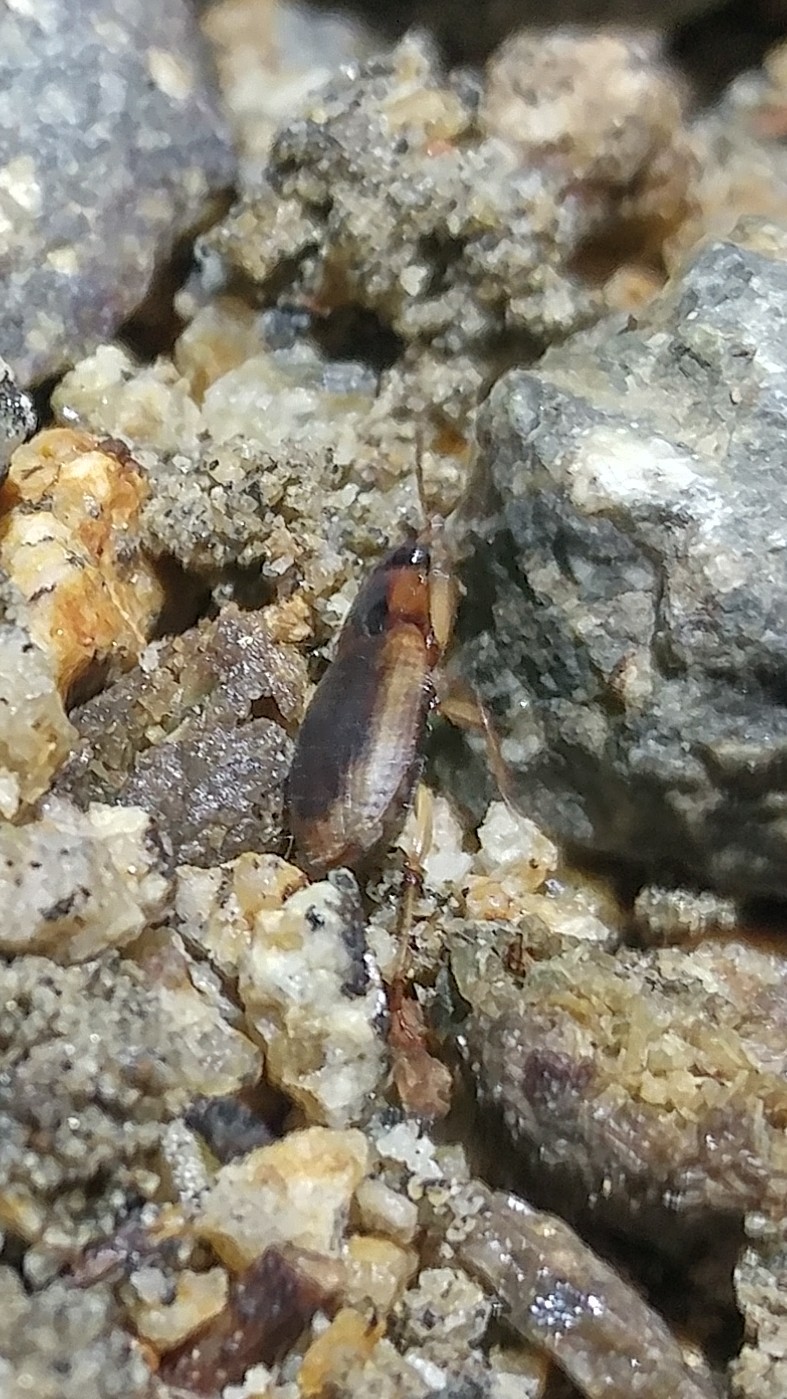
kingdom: Animalia
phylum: Arthropoda
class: Insecta
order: Coleoptera
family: Carabidae
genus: Tanystoma
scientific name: Tanystoma maculicolle
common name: Tule beetle
